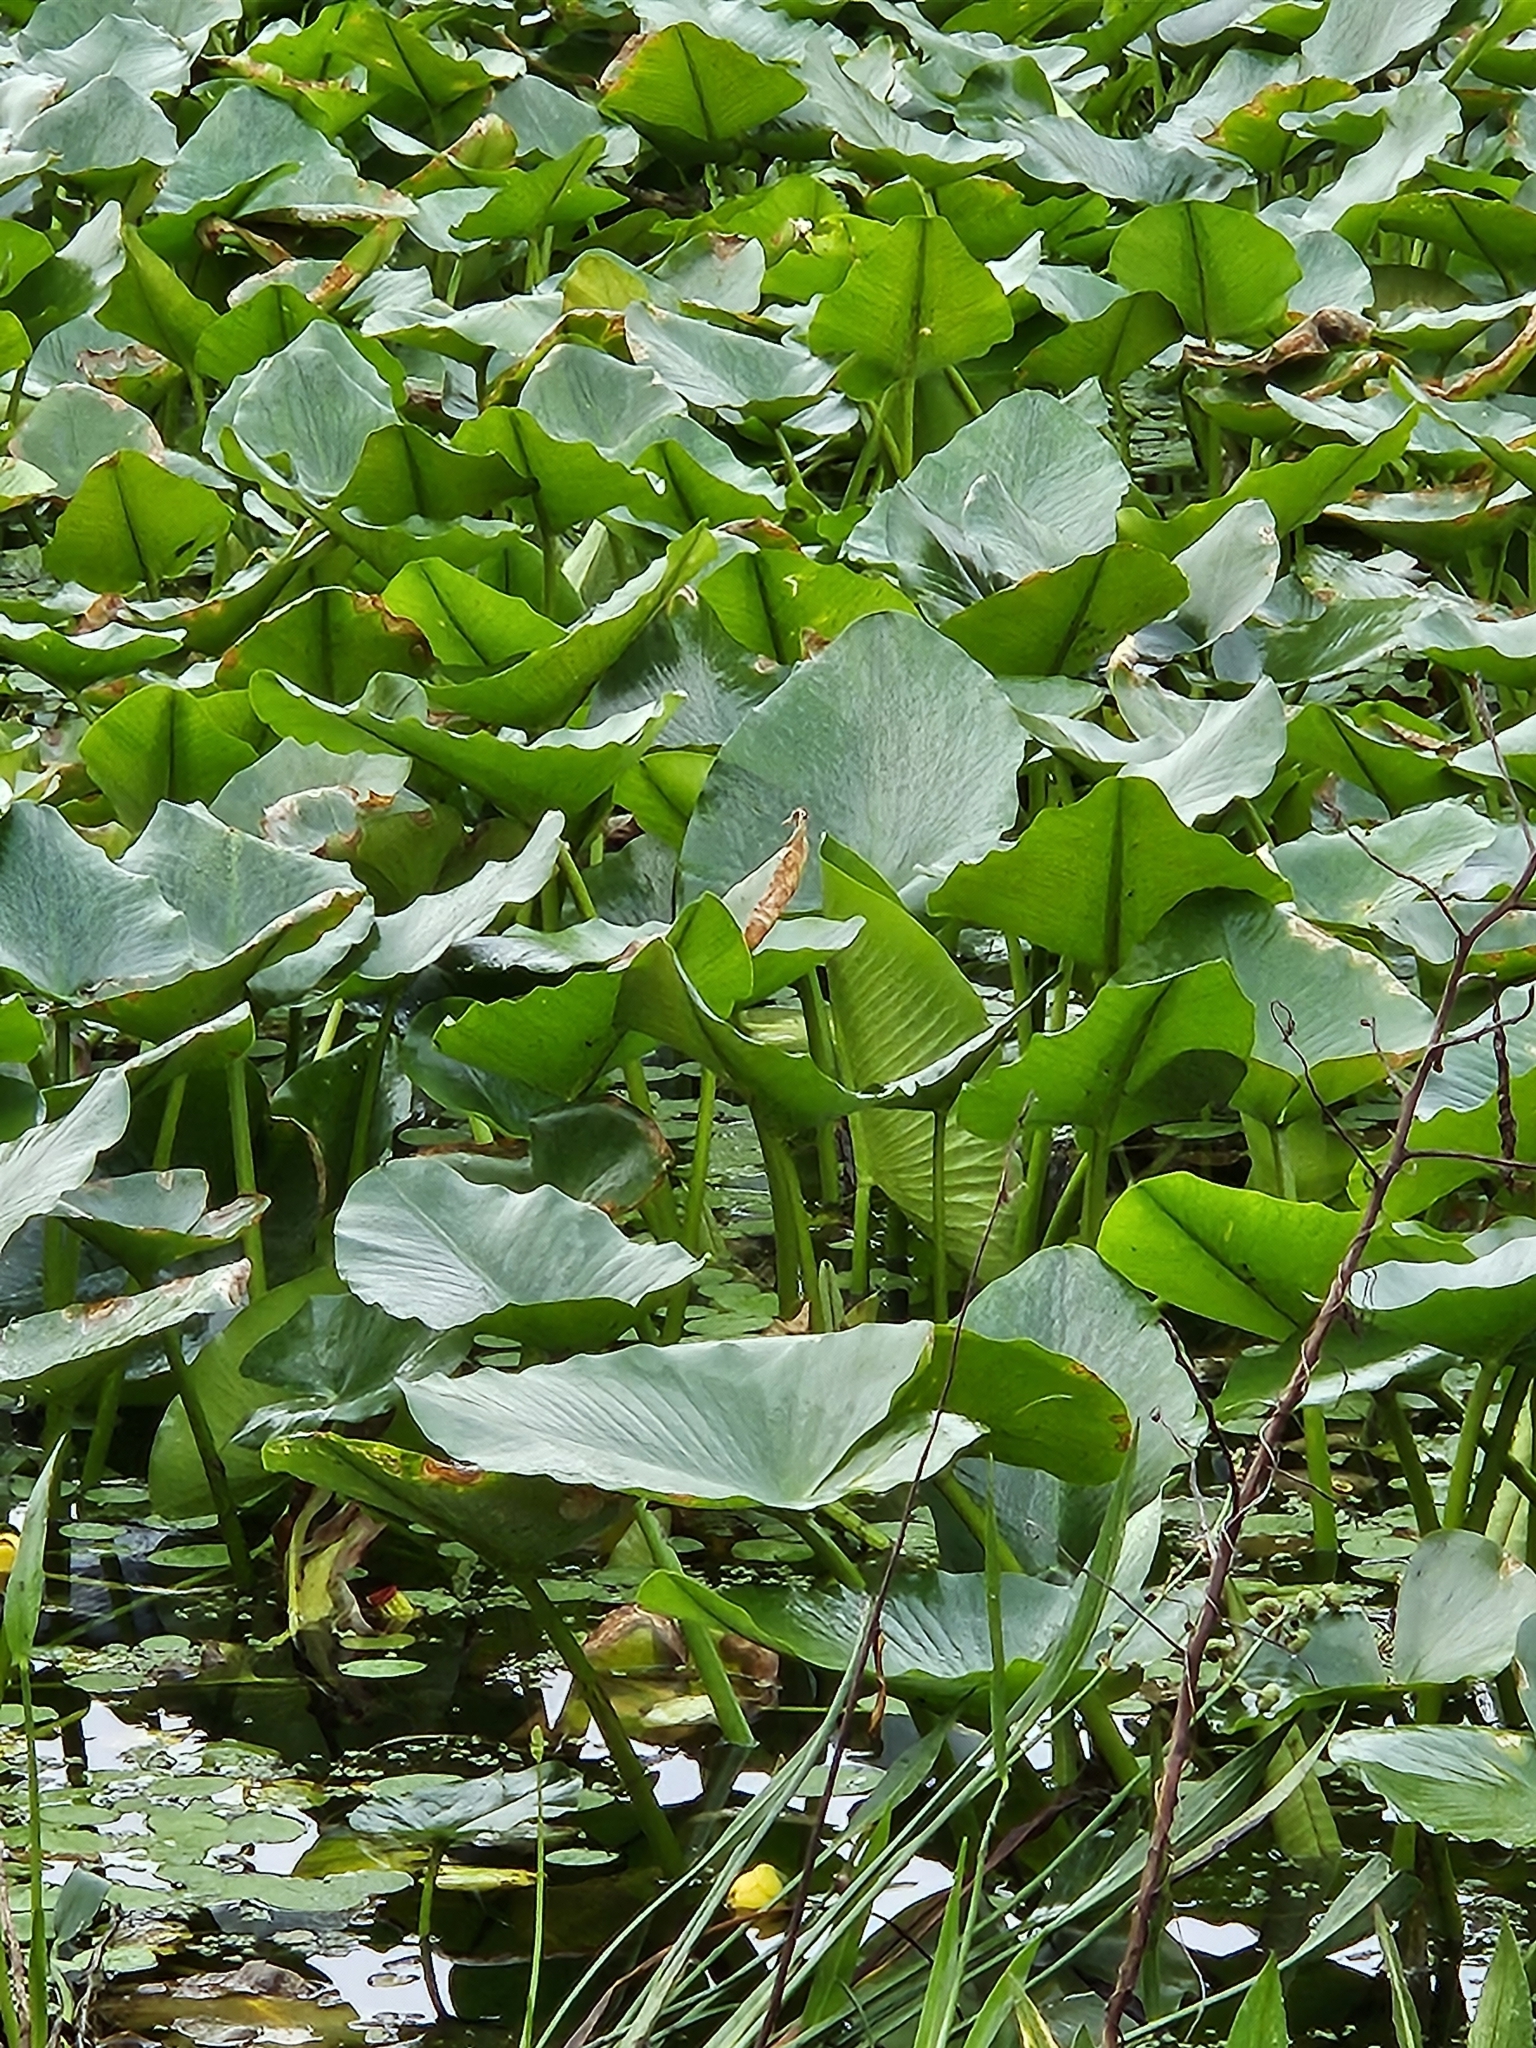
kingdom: Plantae
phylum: Tracheophyta
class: Magnoliopsida
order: Nymphaeales
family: Nymphaeaceae
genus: Nuphar
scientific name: Nuphar advena
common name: Spatter-dock
